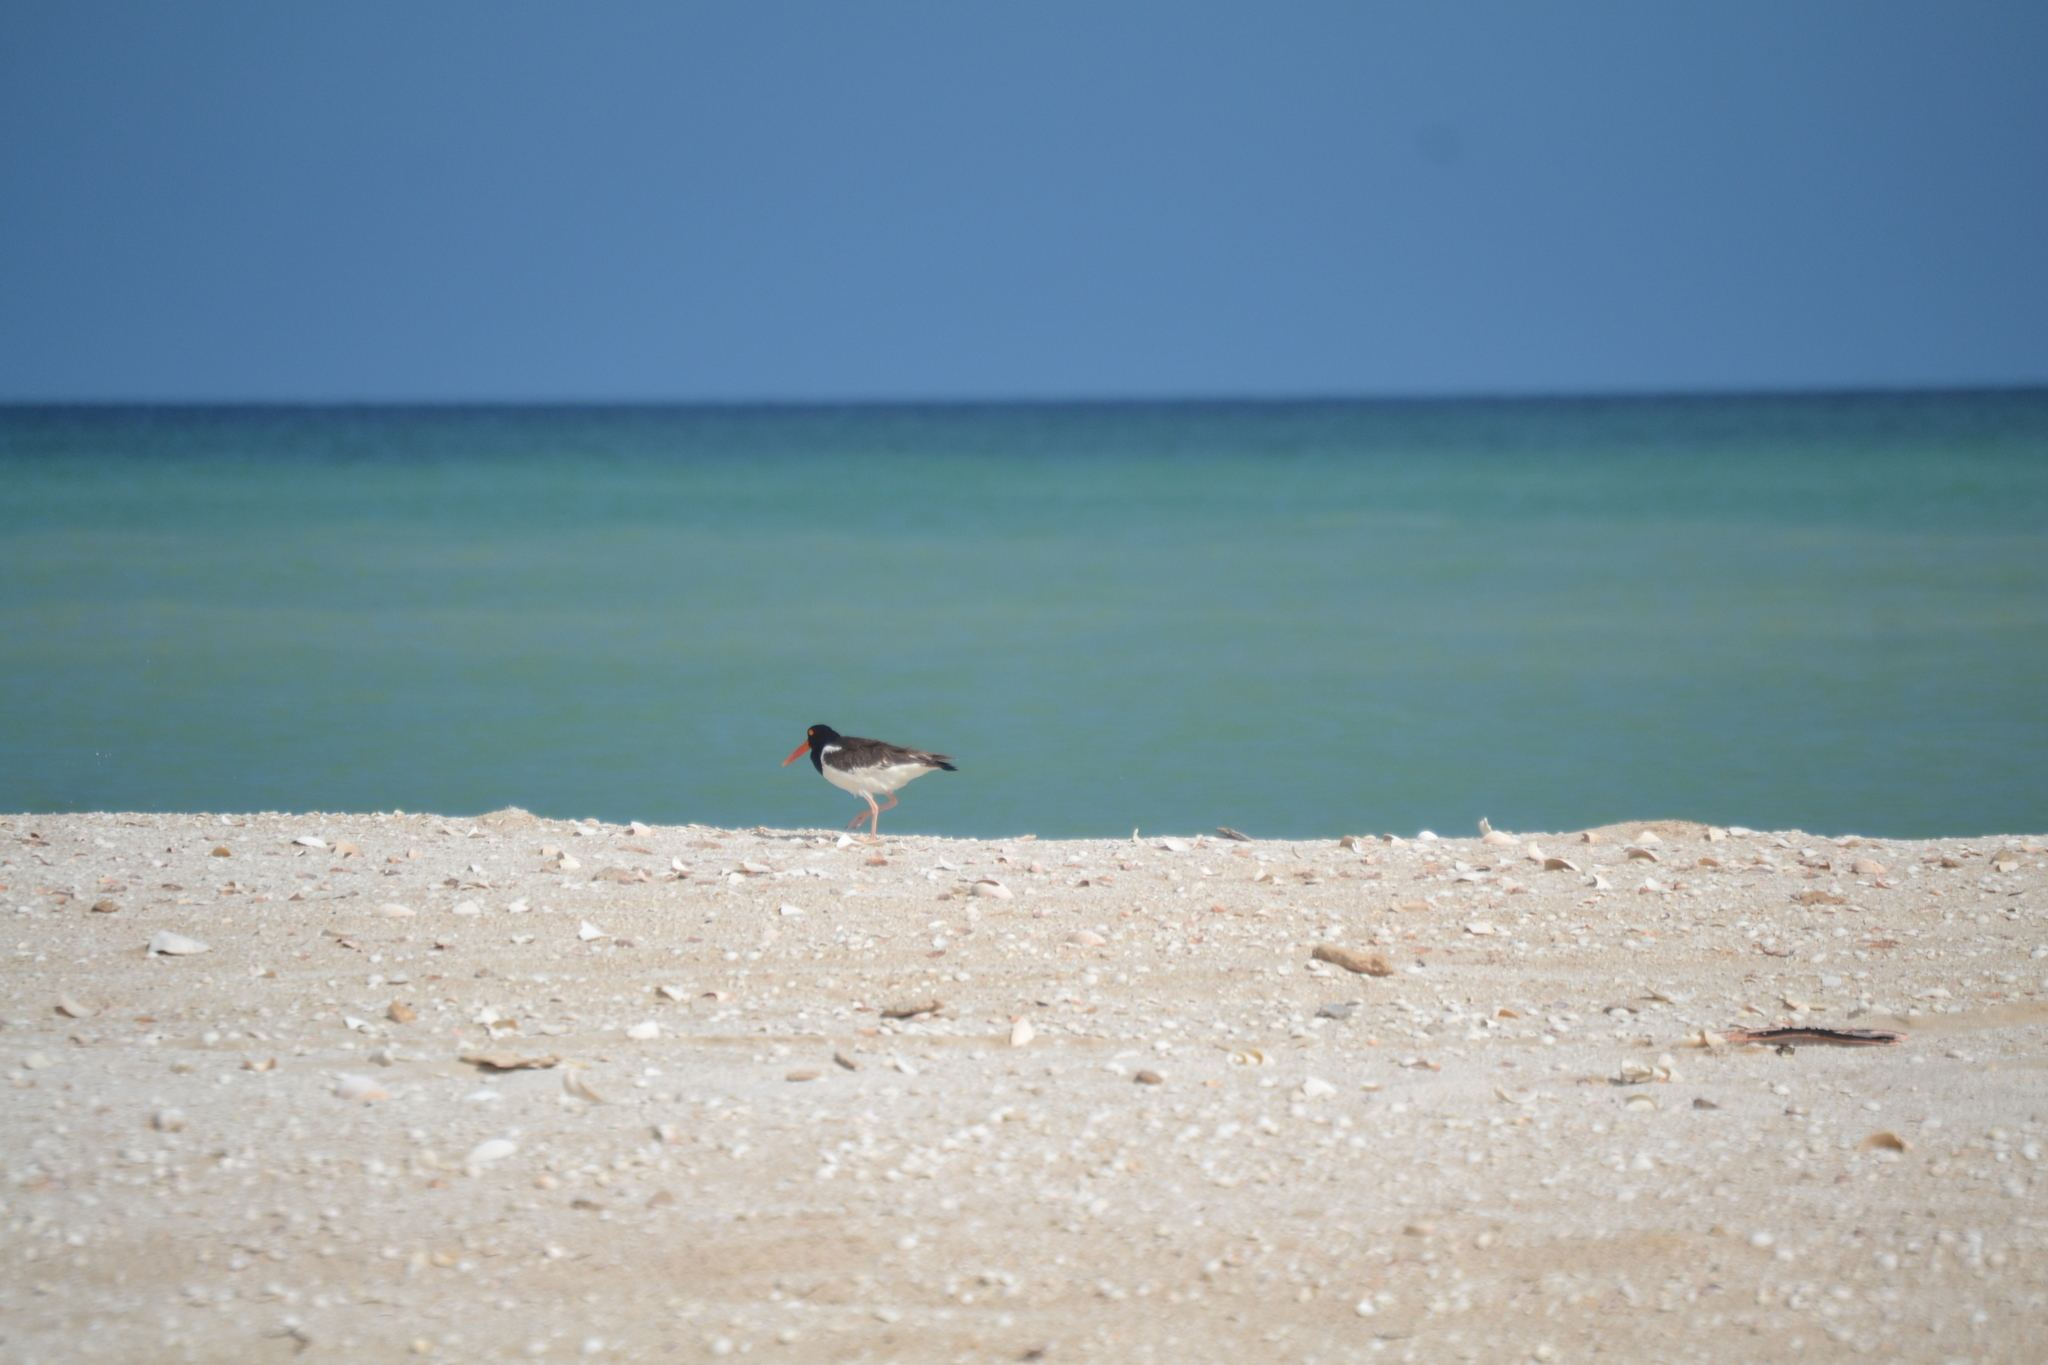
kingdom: Animalia
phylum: Chordata
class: Aves
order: Charadriiformes
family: Haematopodidae
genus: Haematopus
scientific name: Haematopus palliatus
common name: American oystercatcher
